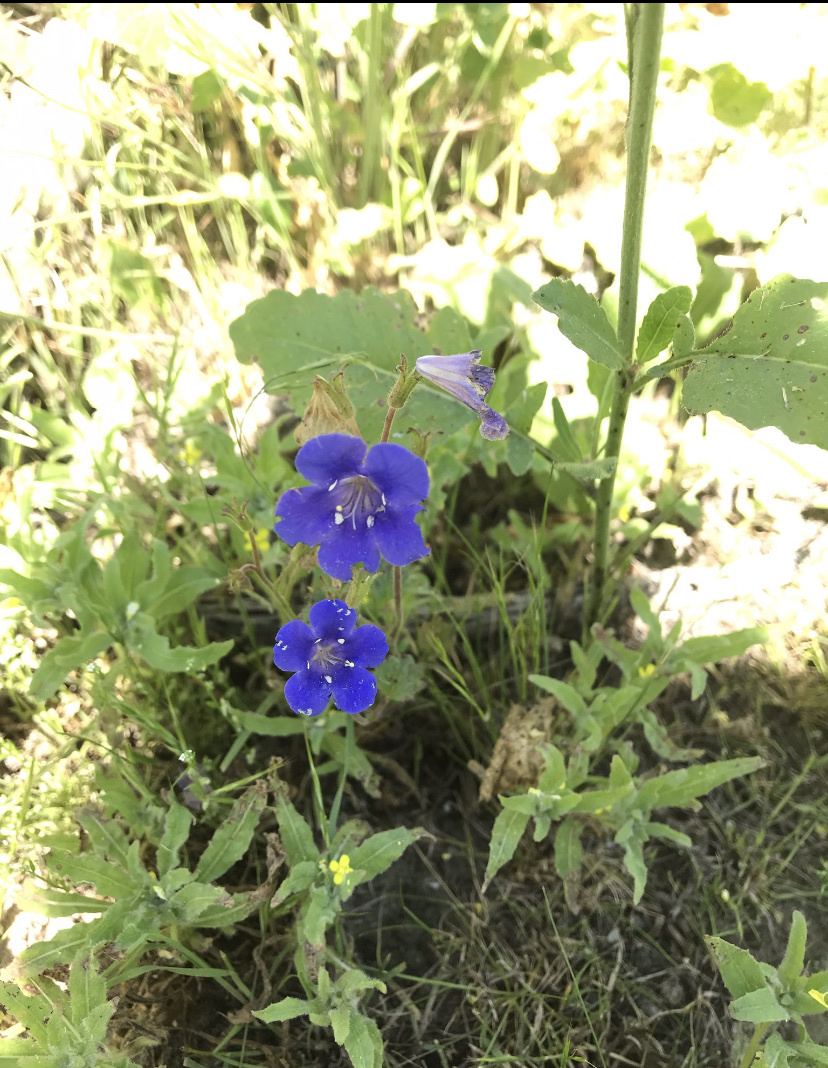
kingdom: Plantae
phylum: Tracheophyta
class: Magnoliopsida
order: Boraginales
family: Hydrophyllaceae
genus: Phacelia
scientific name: Phacelia campanularia
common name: California bluebell
